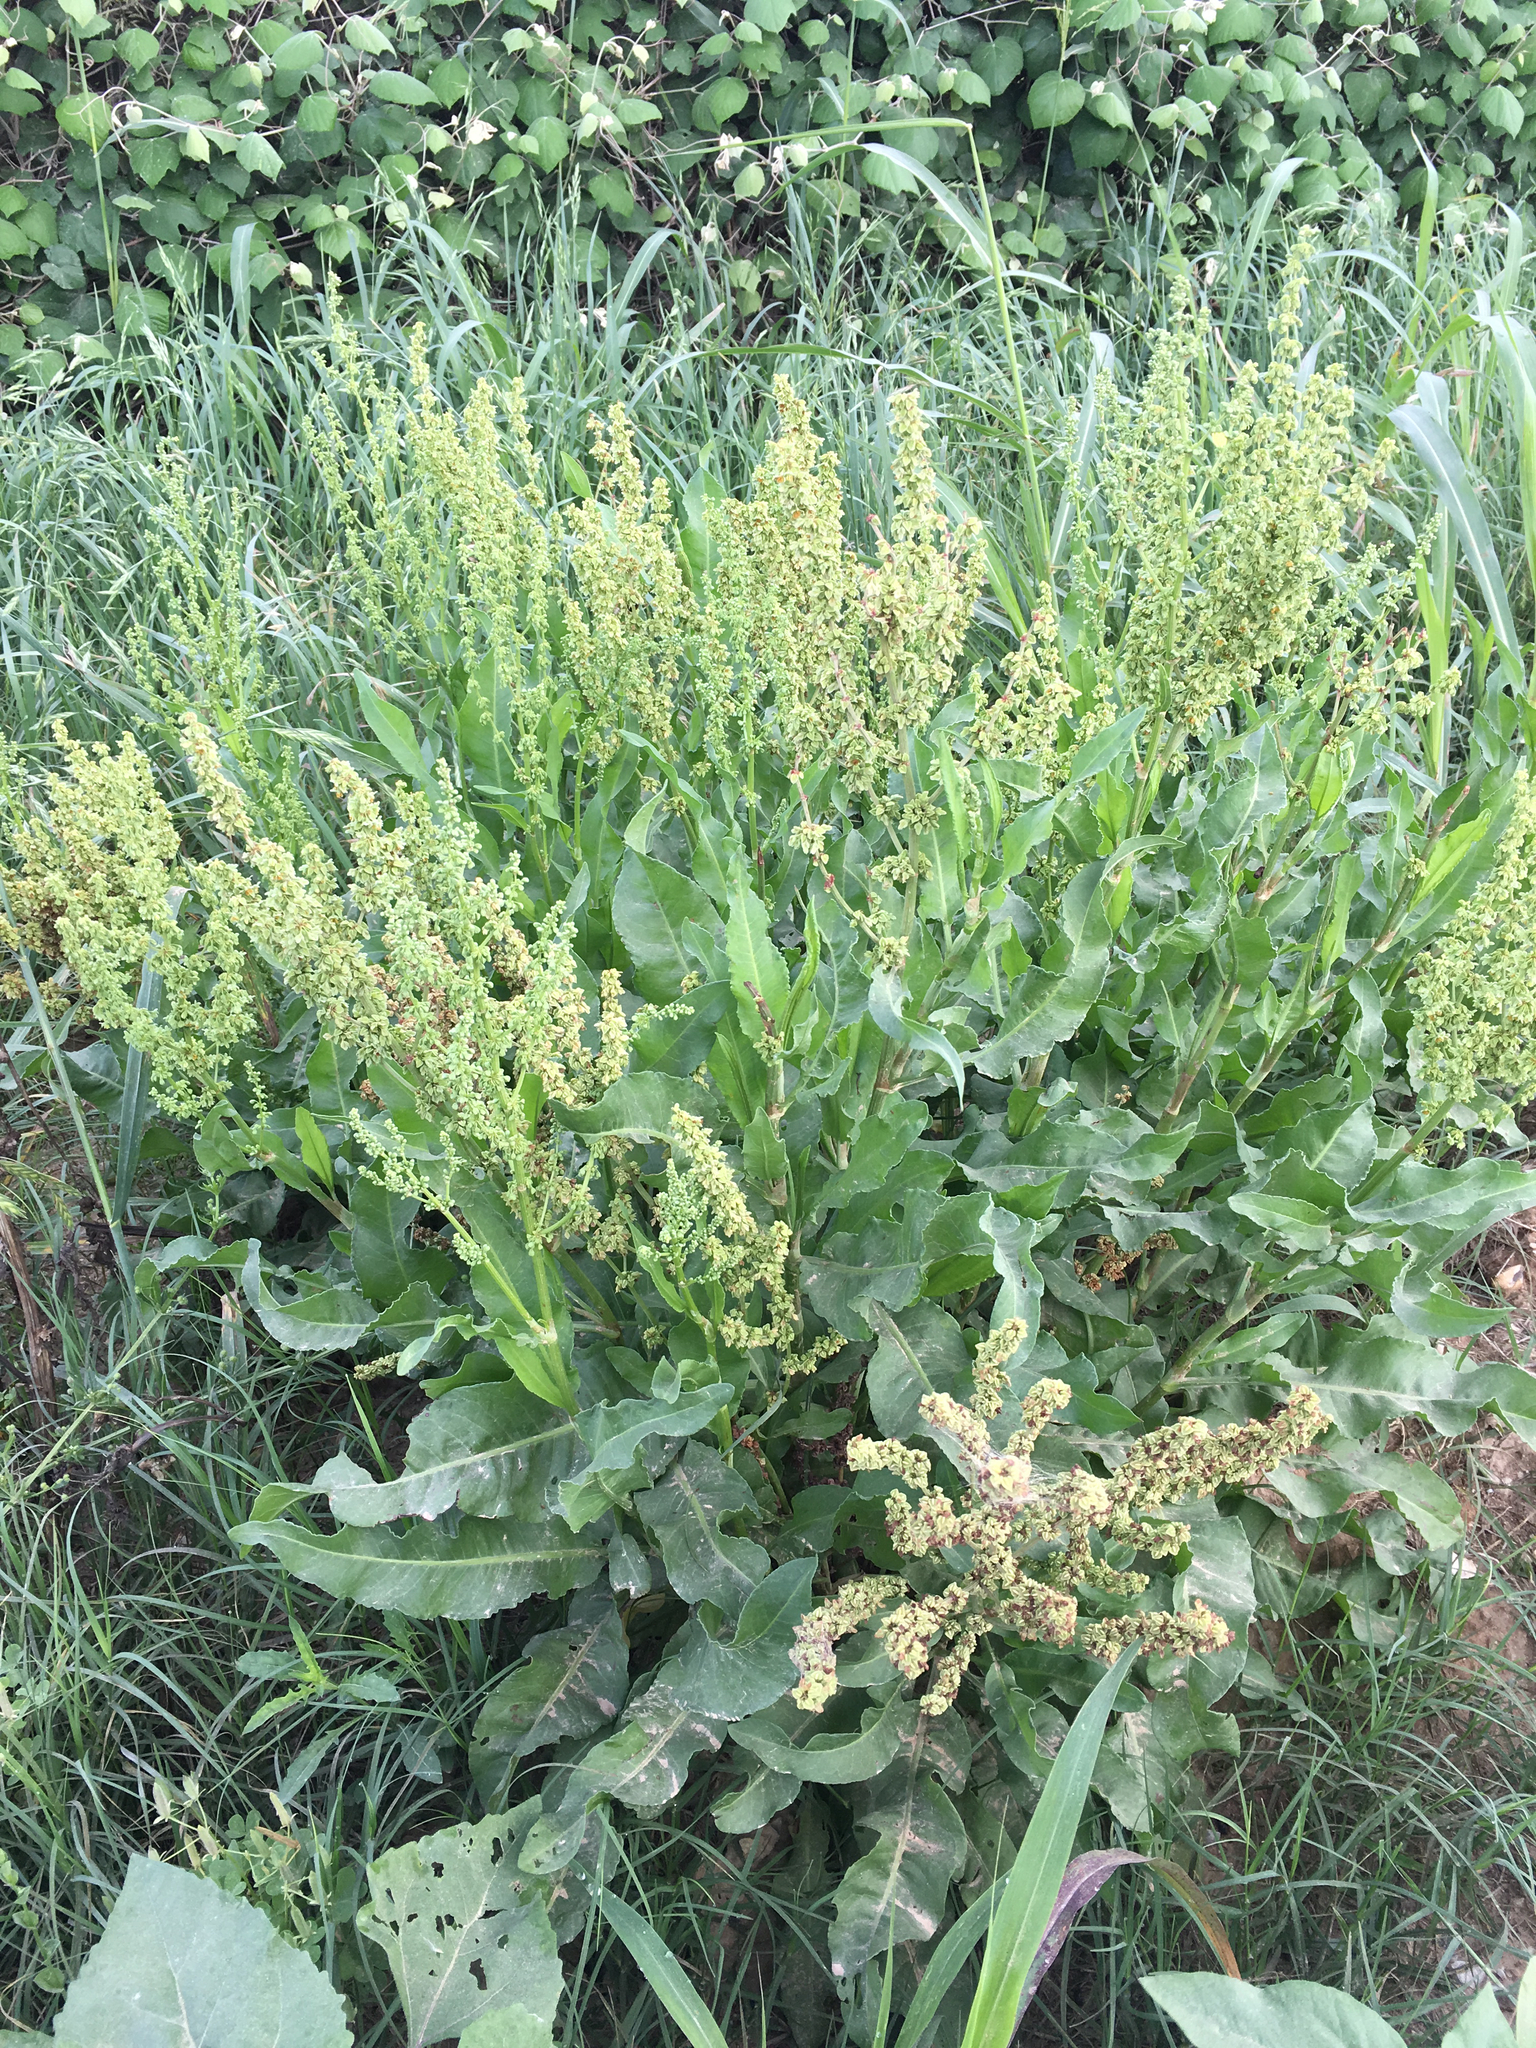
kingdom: Plantae
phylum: Tracheophyta
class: Magnoliopsida
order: Caryophyllales
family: Polygonaceae
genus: Rumex
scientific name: Rumex crispus
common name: Curled dock
